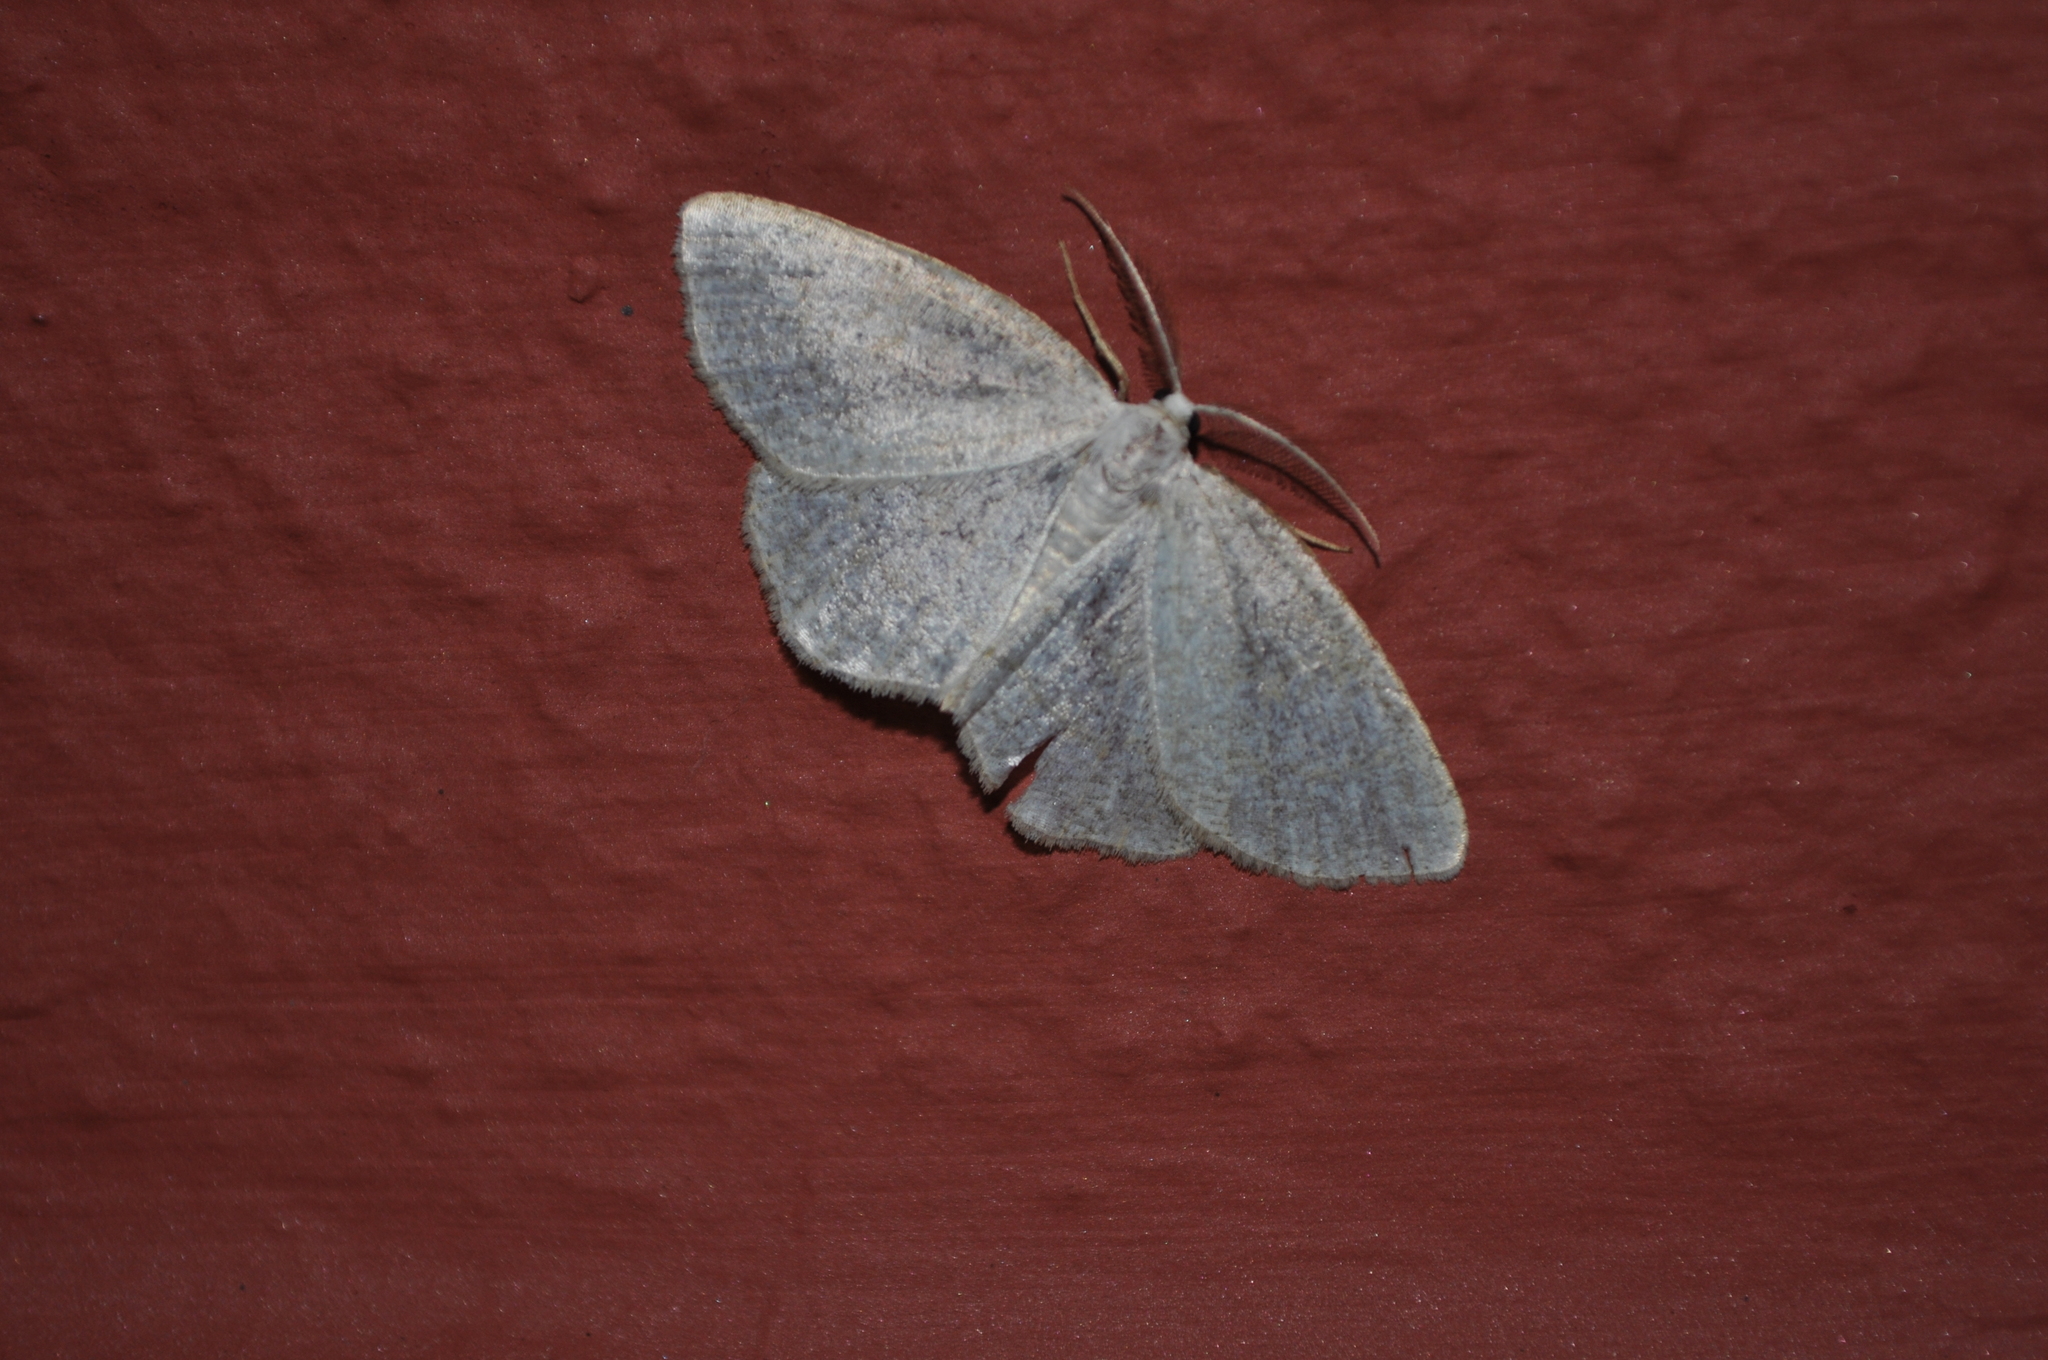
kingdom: Animalia
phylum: Arthropoda
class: Insecta
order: Lepidoptera
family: Geometridae
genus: Cabera
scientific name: Cabera exanthemata
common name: Common wave
